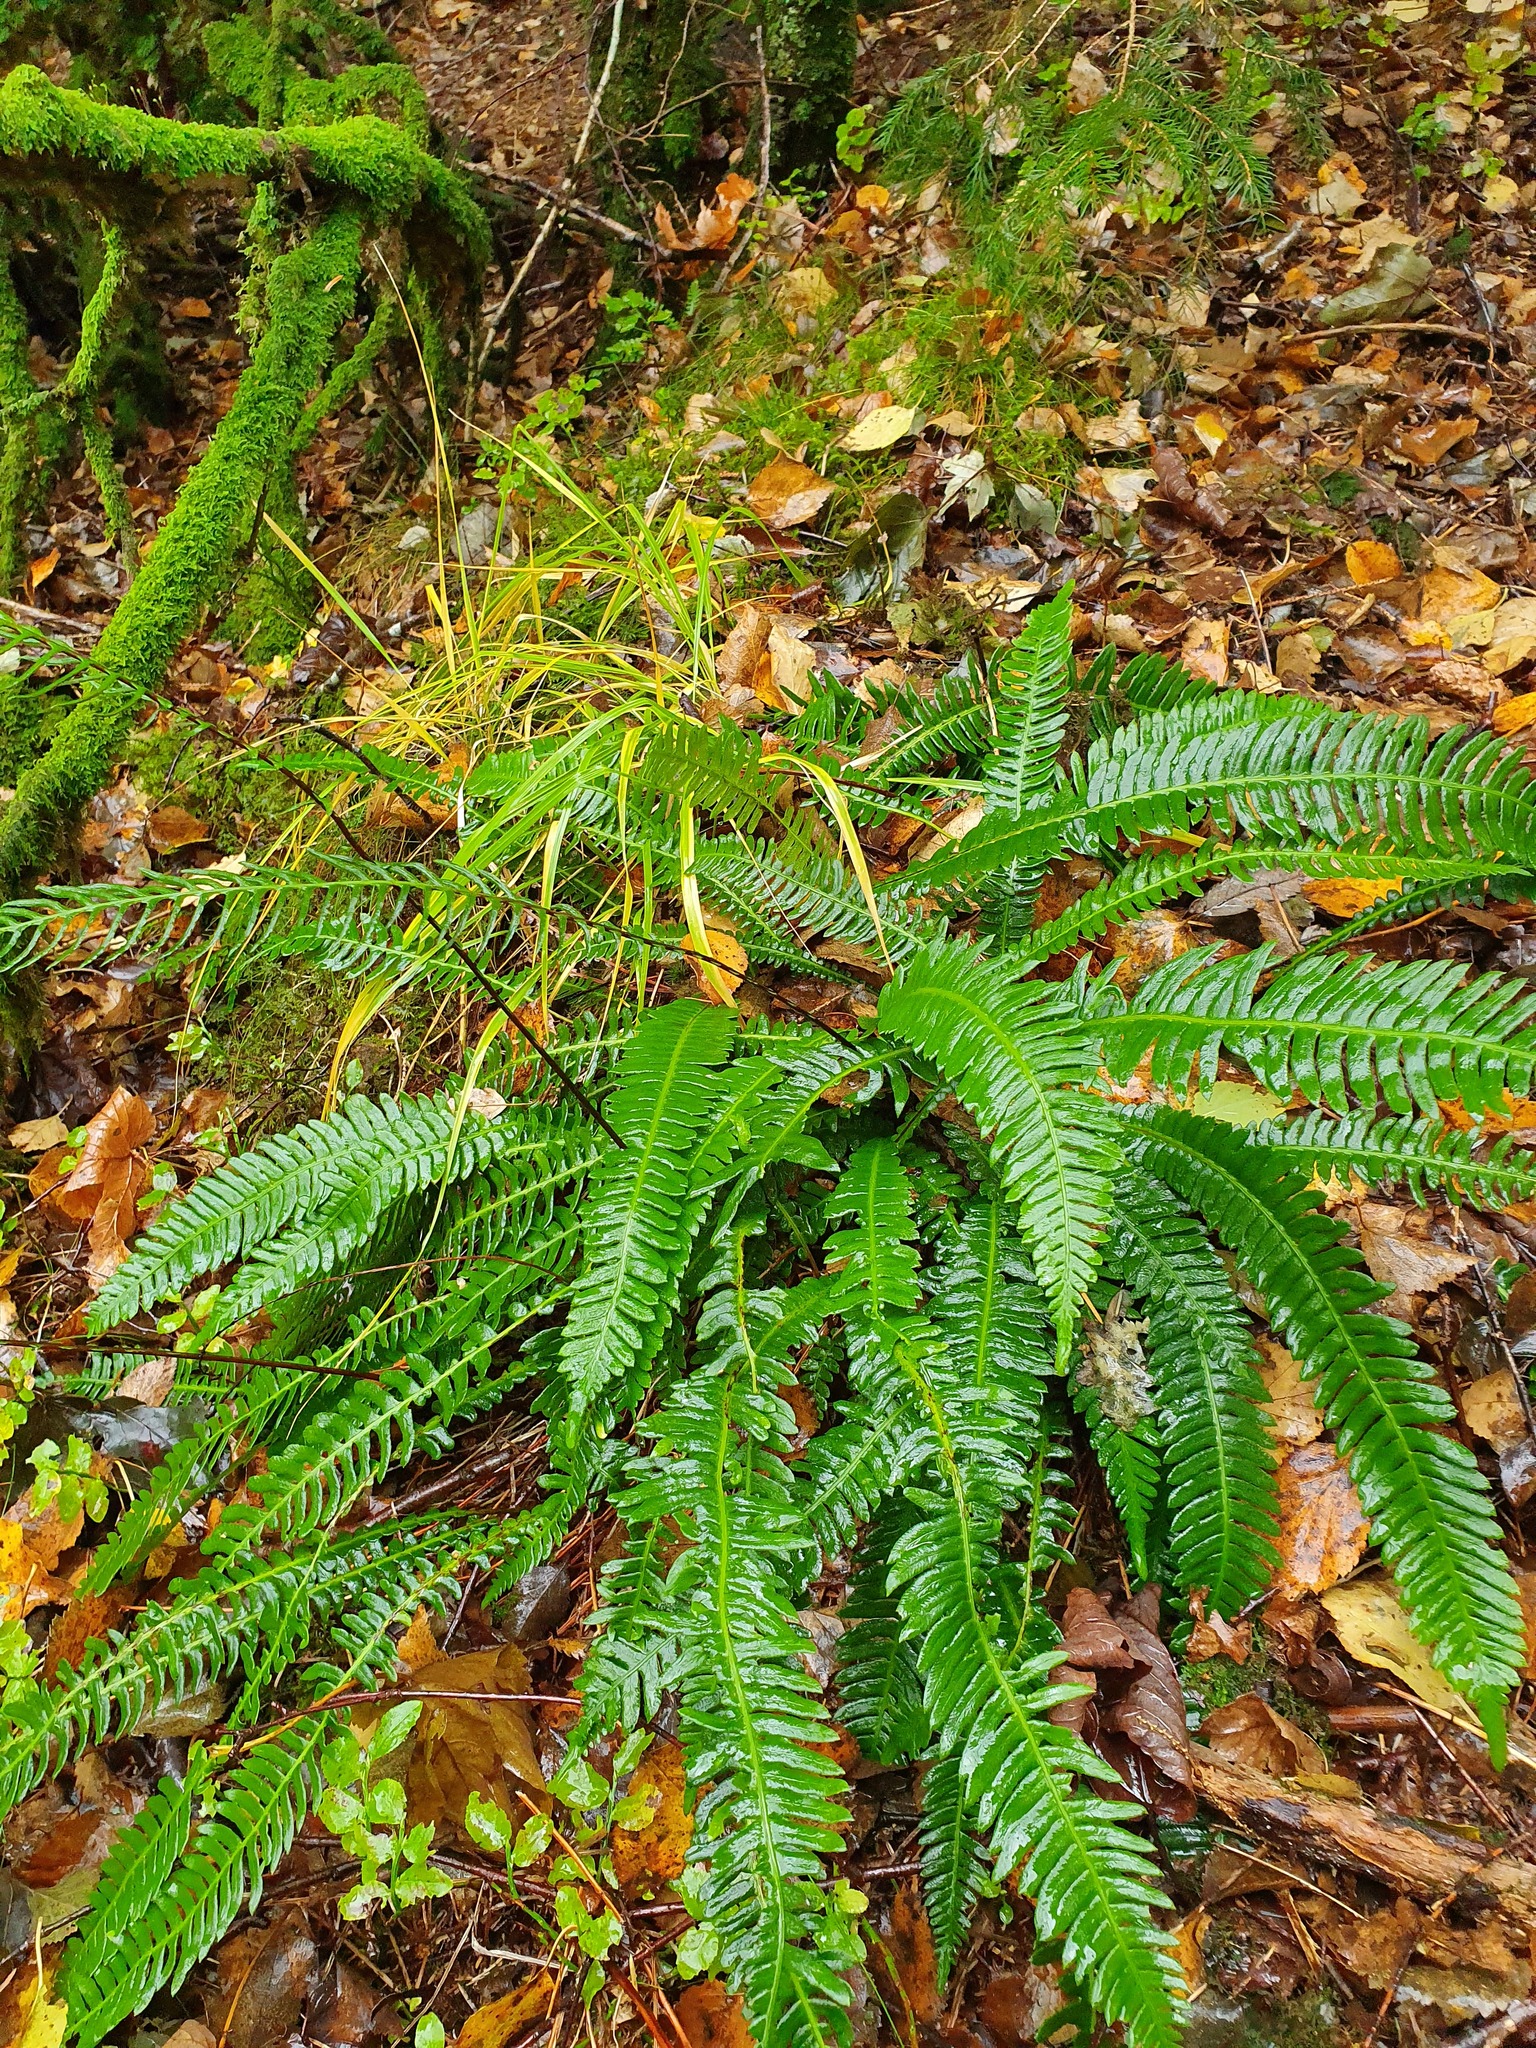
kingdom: Plantae
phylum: Tracheophyta
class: Polypodiopsida
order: Polypodiales
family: Blechnaceae
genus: Struthiopteris
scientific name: Struthiopteris spicant
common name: Deer fern
